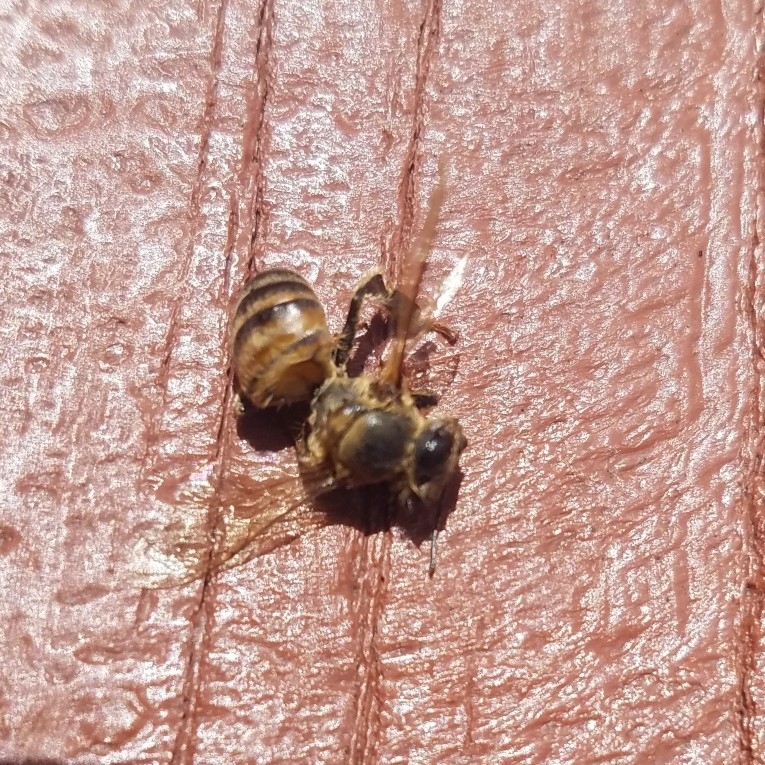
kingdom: Animalia
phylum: Arthropoda
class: Insecta
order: Hymenoptera
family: Apidae
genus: Apis
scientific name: Apis mellifera
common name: Honey bee
